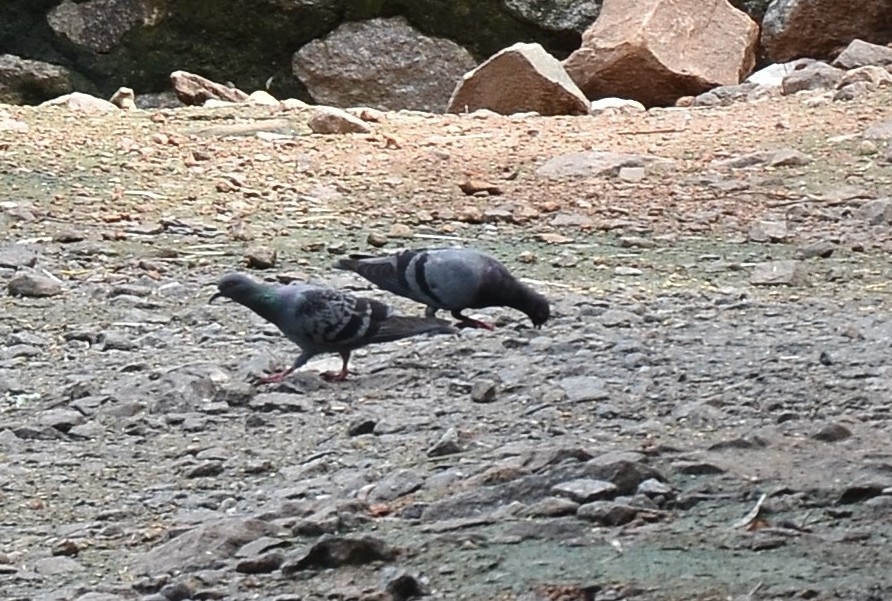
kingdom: Animalia
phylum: Chordata
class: Aves
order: Columbiformes
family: Columbidae
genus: Columba
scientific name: Columba livia
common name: Rock pigeon
